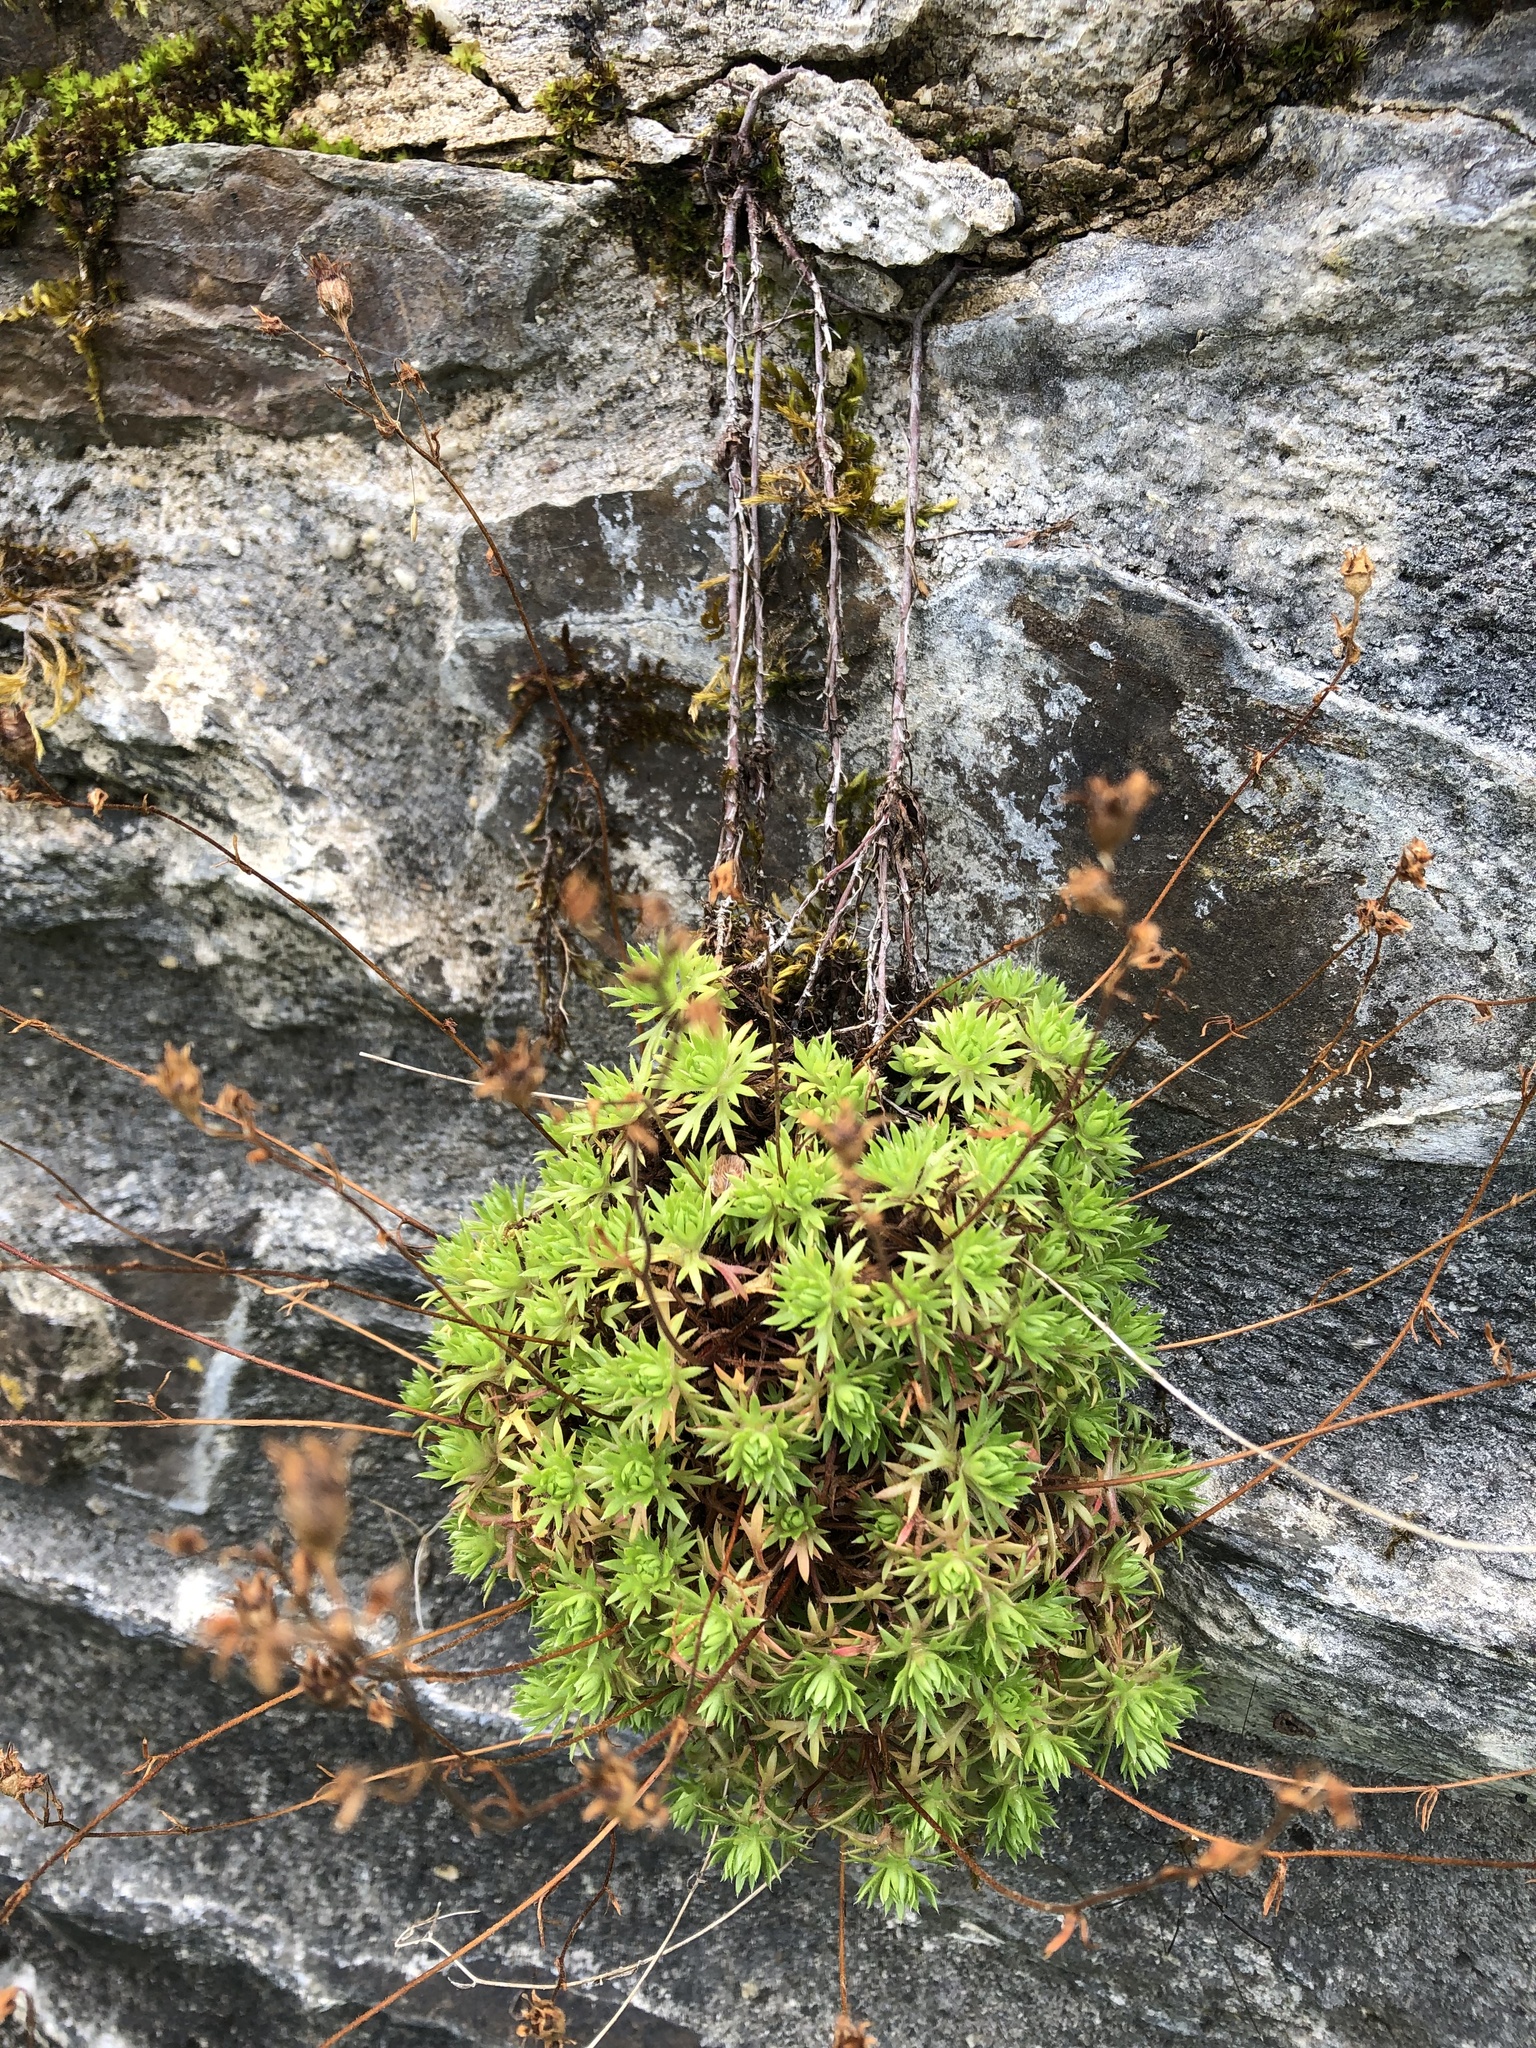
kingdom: Plantae
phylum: Tracheophyta
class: Magnoliopsida
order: Saxifragales
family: Saxifragaceae
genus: Saxifraga
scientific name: Saxifraga rosacea
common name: Irish saxifrage
